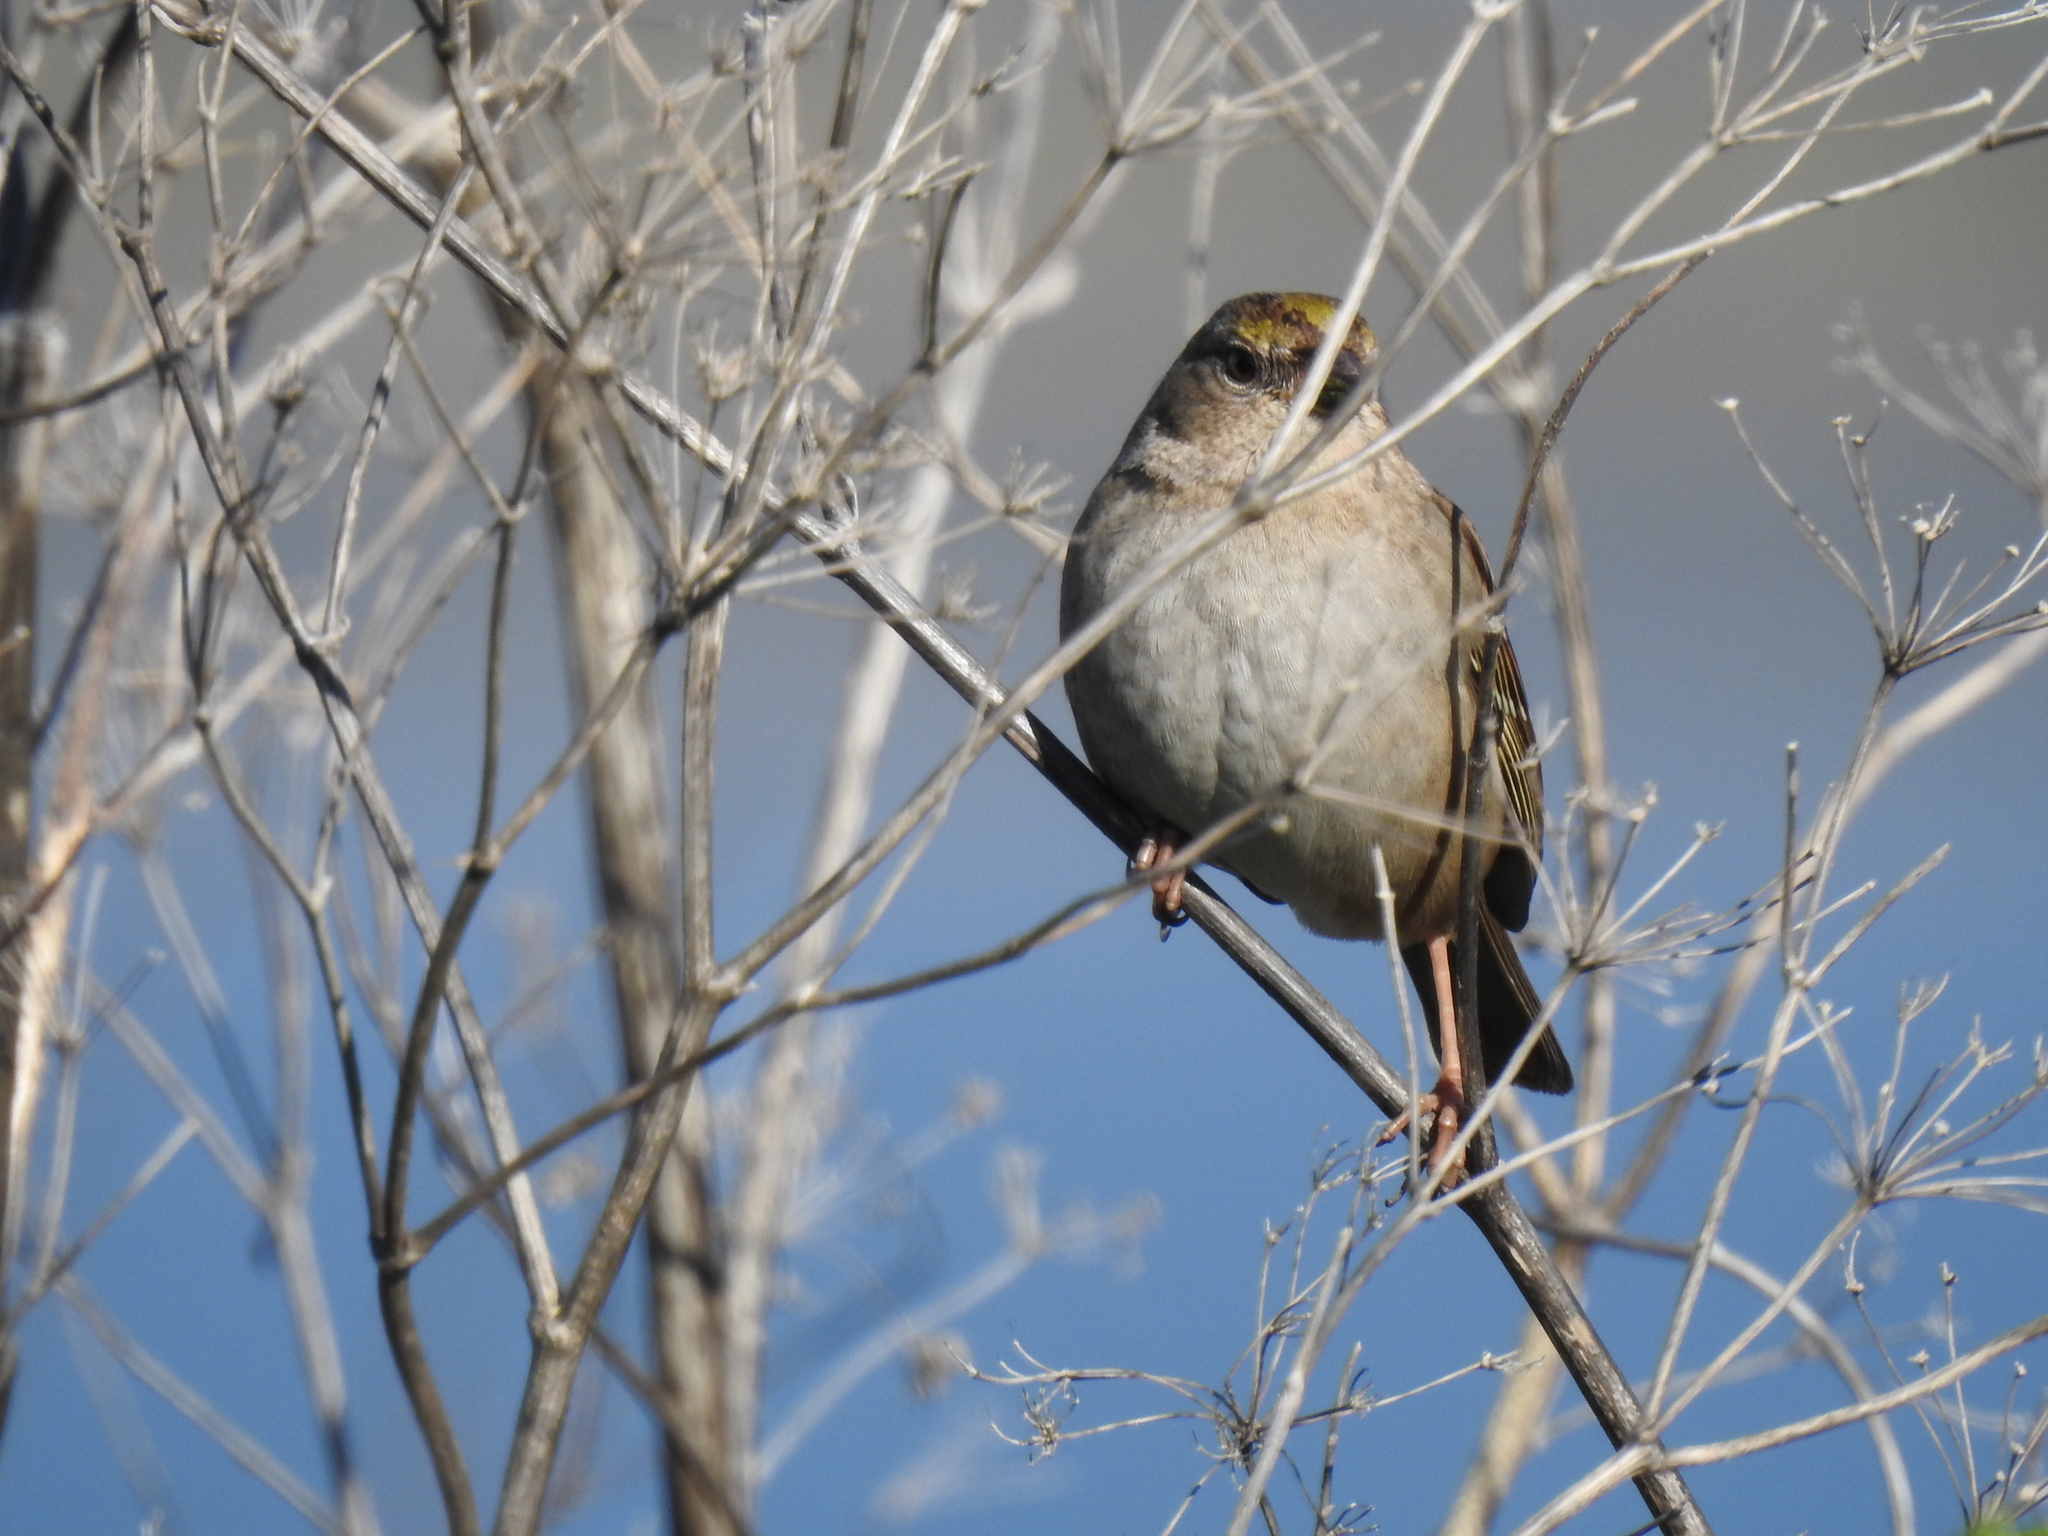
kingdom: Animalia
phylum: Chordata
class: Aves
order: Passeriformes
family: Passerellidae
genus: Zonotrichia
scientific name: Zonotrichia atricapilla
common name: Golden-crowned sparrow
